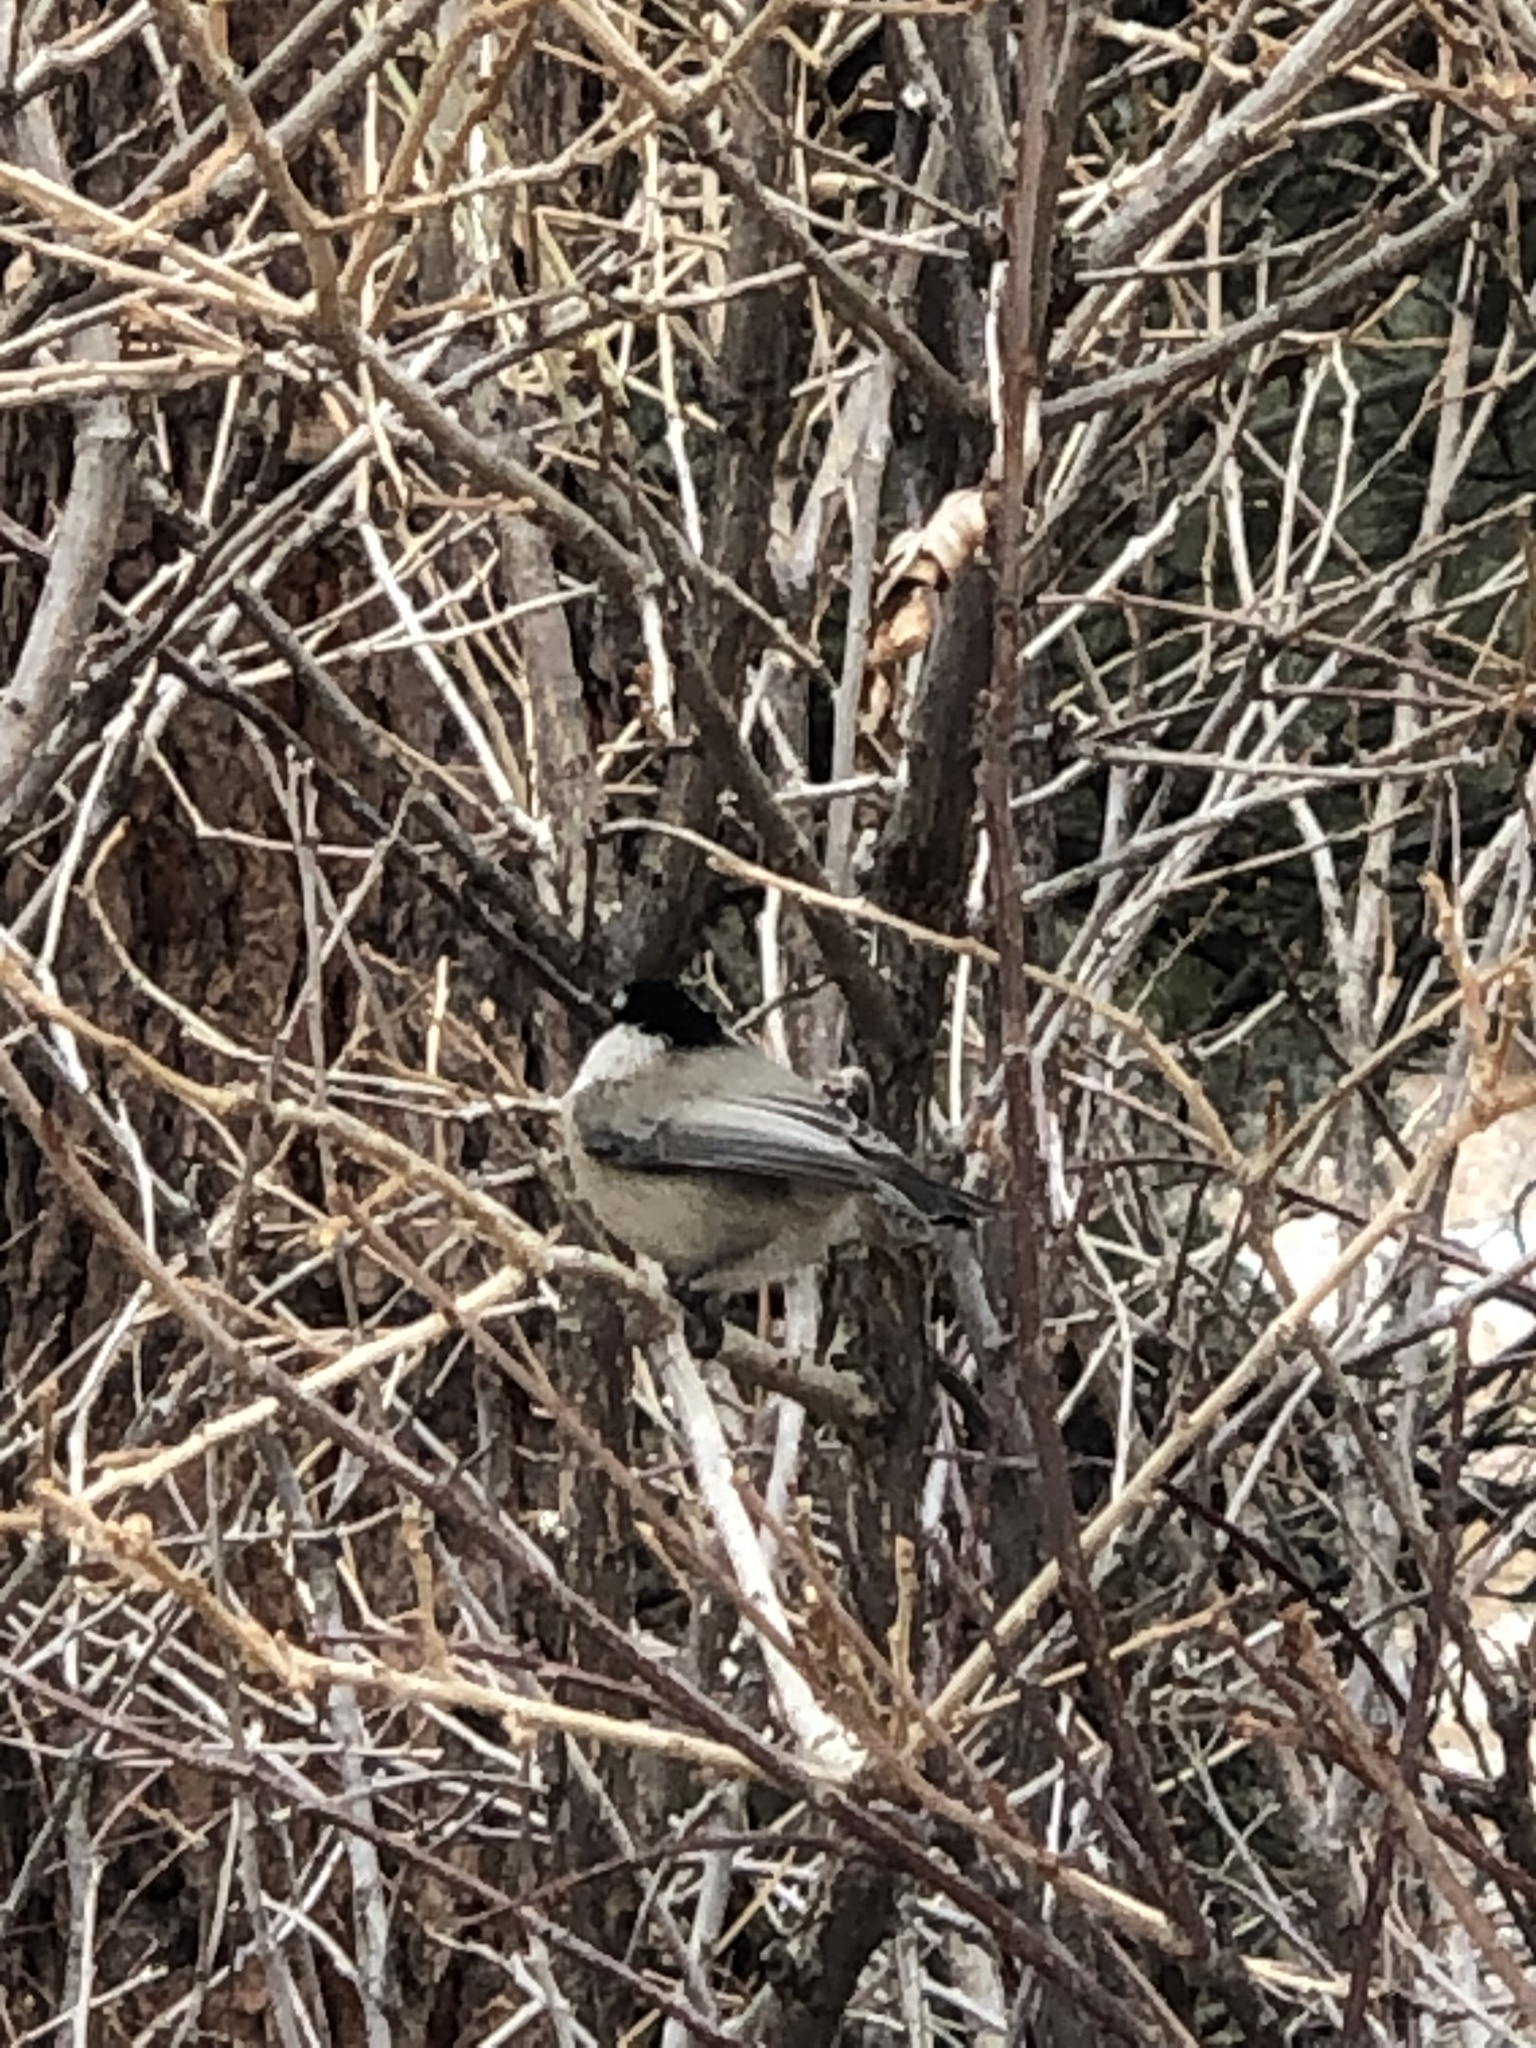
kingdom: Animalia
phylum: Chordata
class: Aves
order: Passeriformes
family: Paridae
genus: Poecile
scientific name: Poecile gambeli
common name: Mountain chickadee
